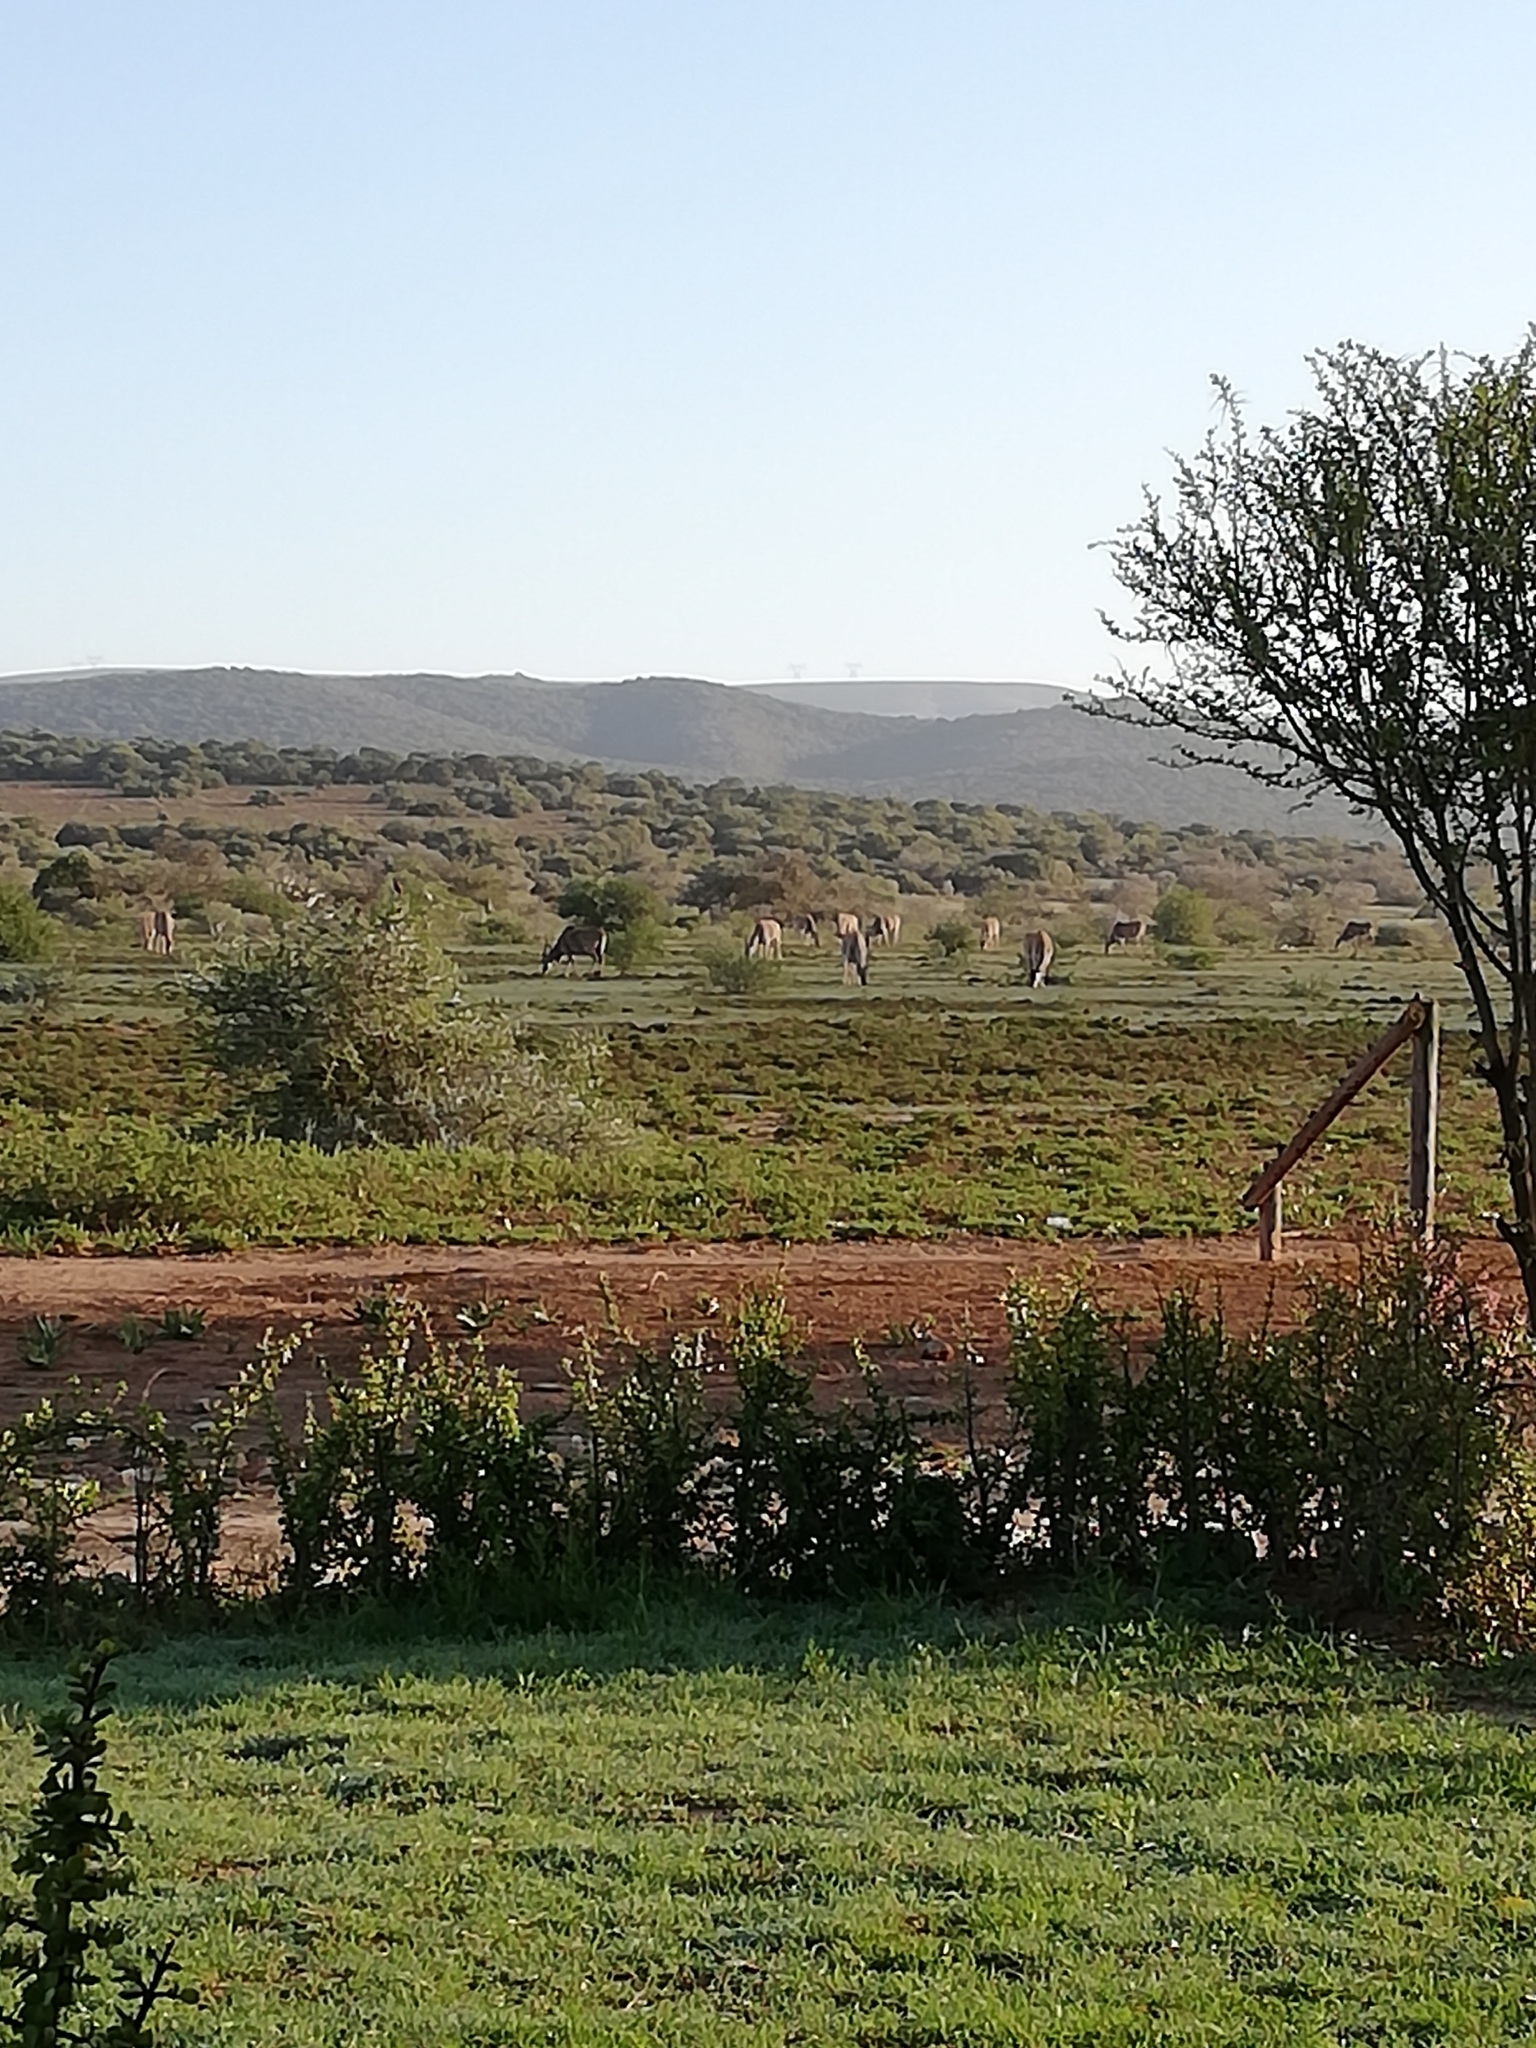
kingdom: Animalia
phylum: Chordata
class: Mammalia
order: Artiodactyla
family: Bovidae
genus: Taurotragus
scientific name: Taurotragus oryx
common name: Common eland
